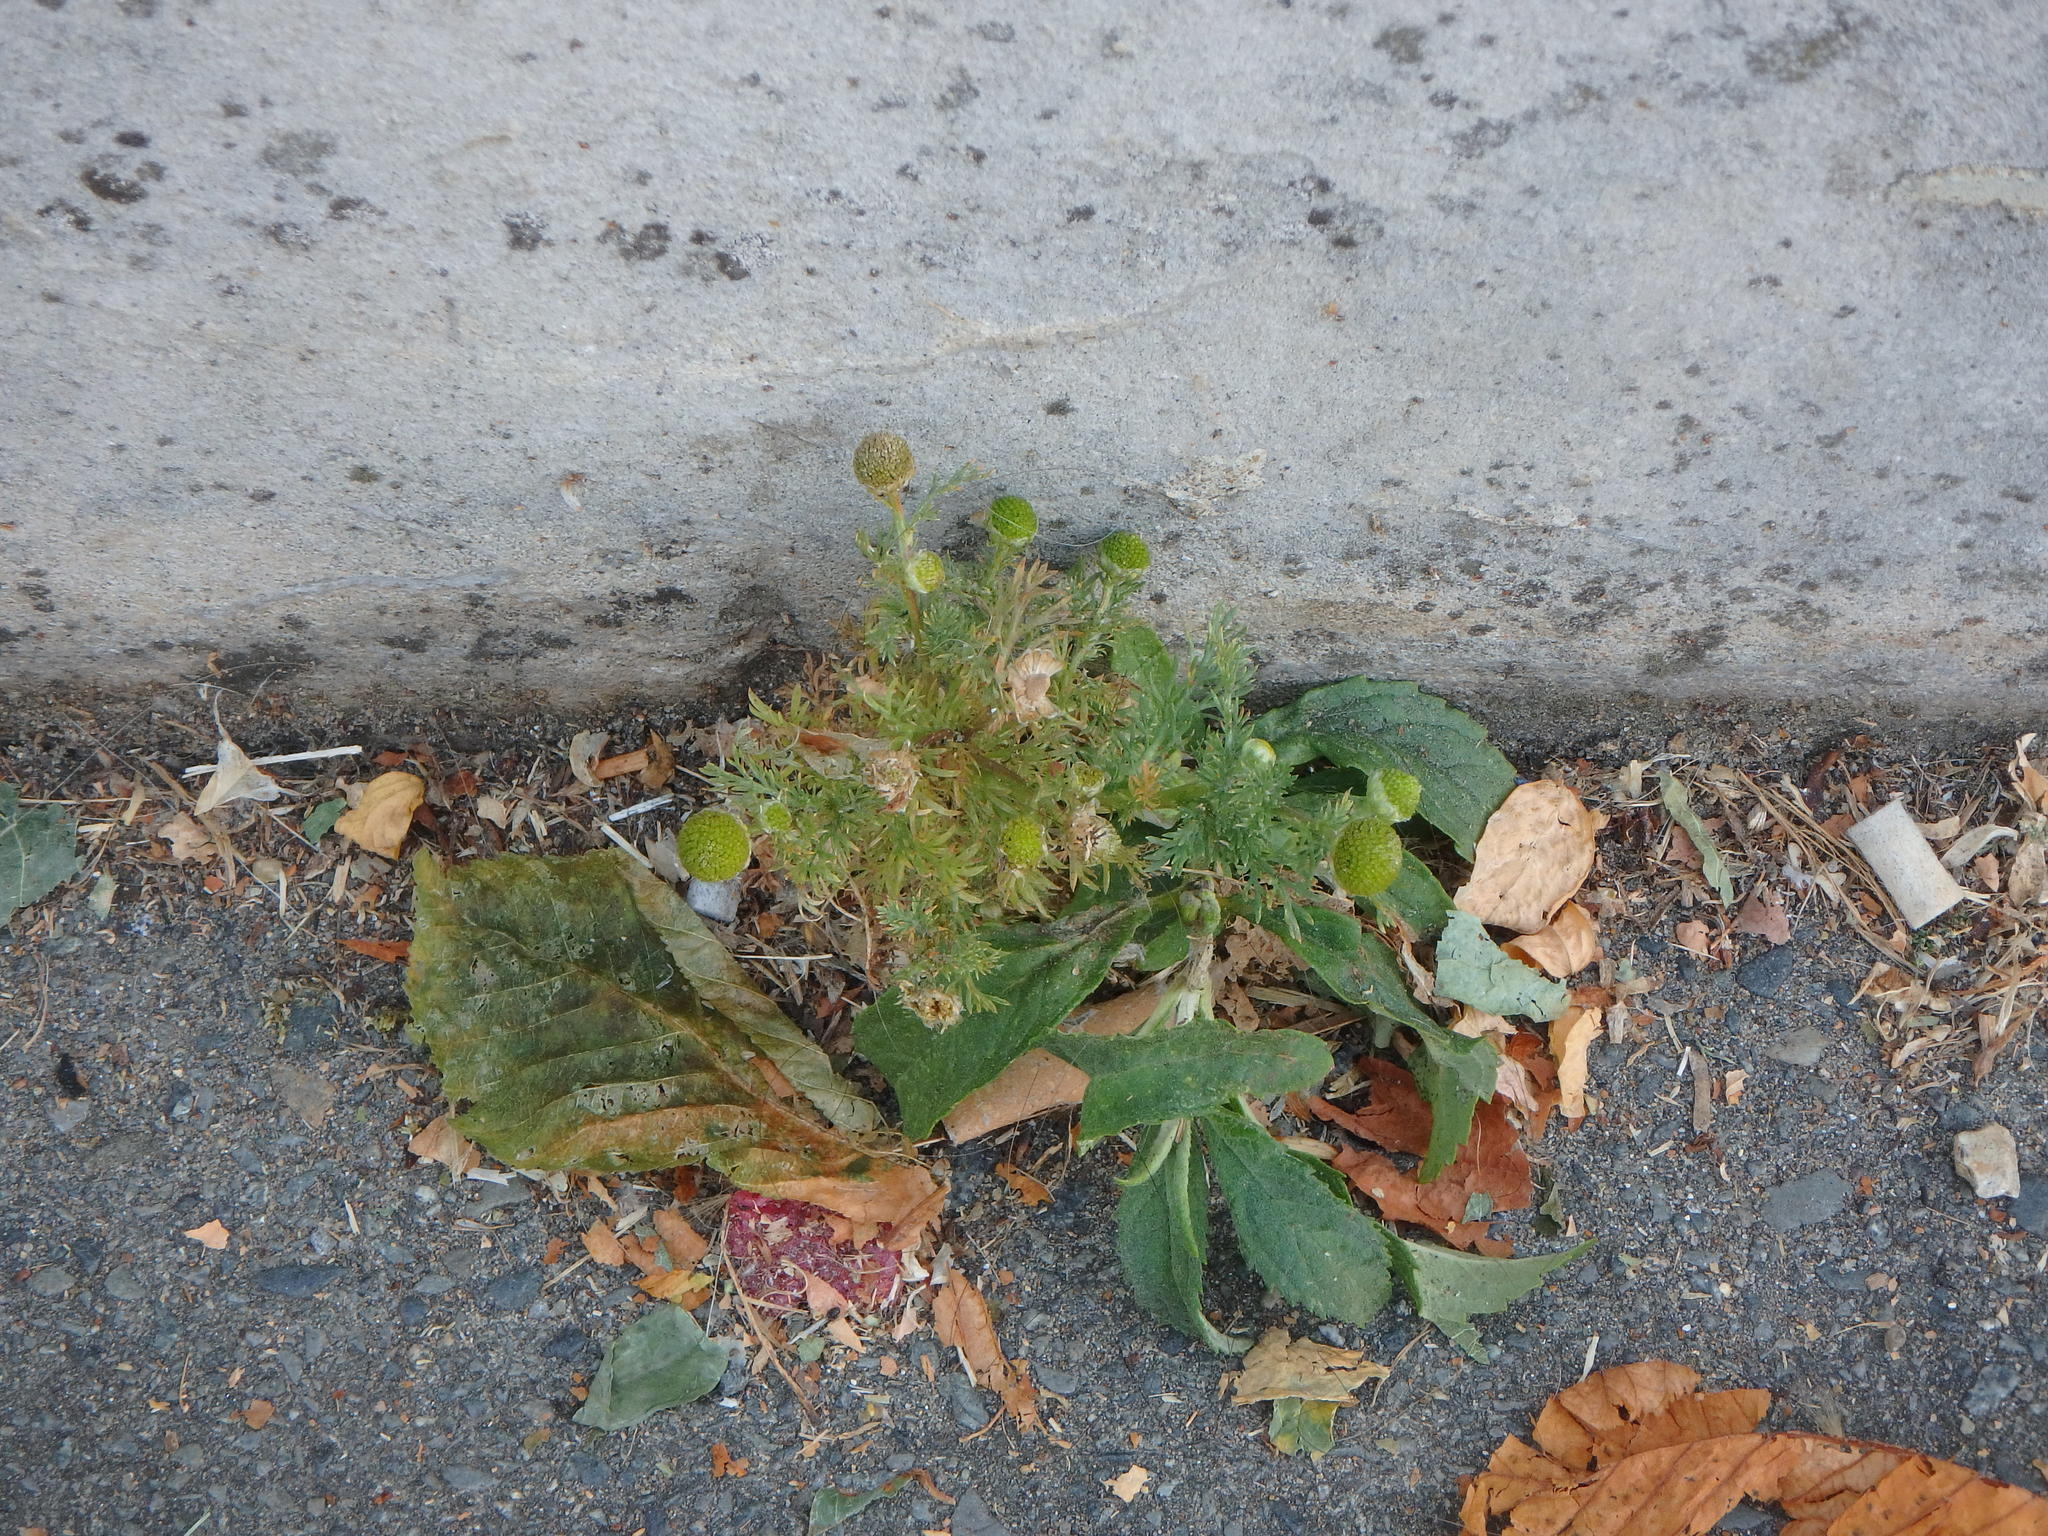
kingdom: Plantae
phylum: Tracheophyta
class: Magnoliopsida
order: Asterales
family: Asteraceae
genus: Matricaria
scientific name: Matricaria discoidea
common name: Disc mayweed
